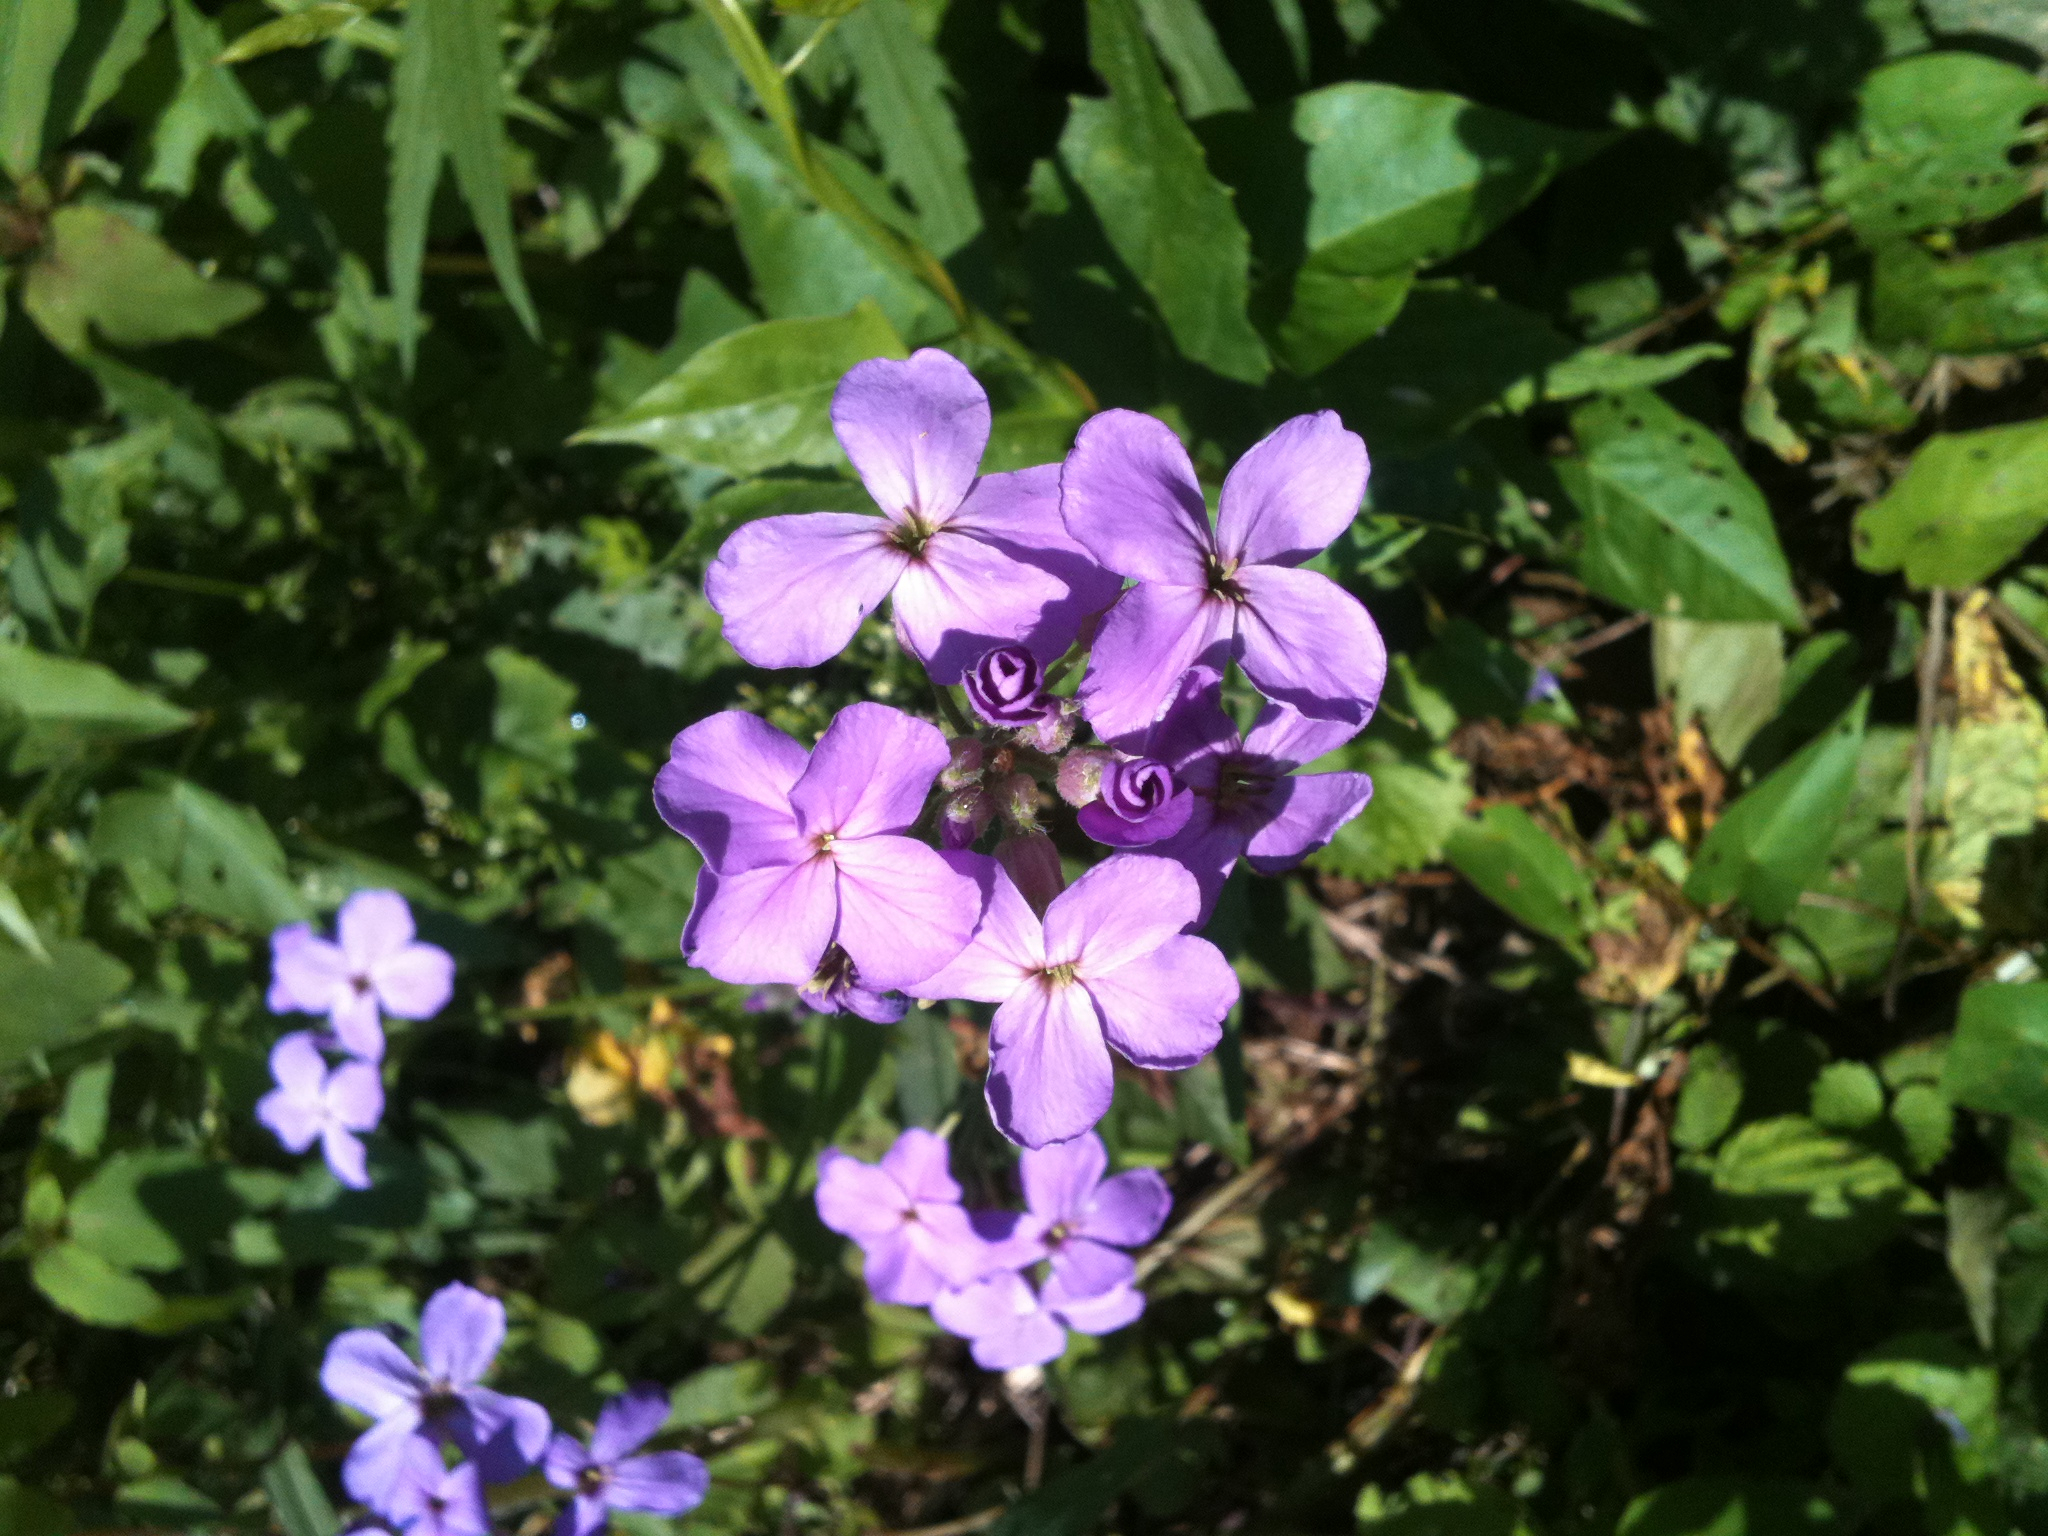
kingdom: Plantae
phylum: Tracheophyta
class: Magnoliopsida
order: Brassicales
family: Brassicaceae
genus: Hesperis
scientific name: Hesperis matronalis
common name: Dame's-violet
